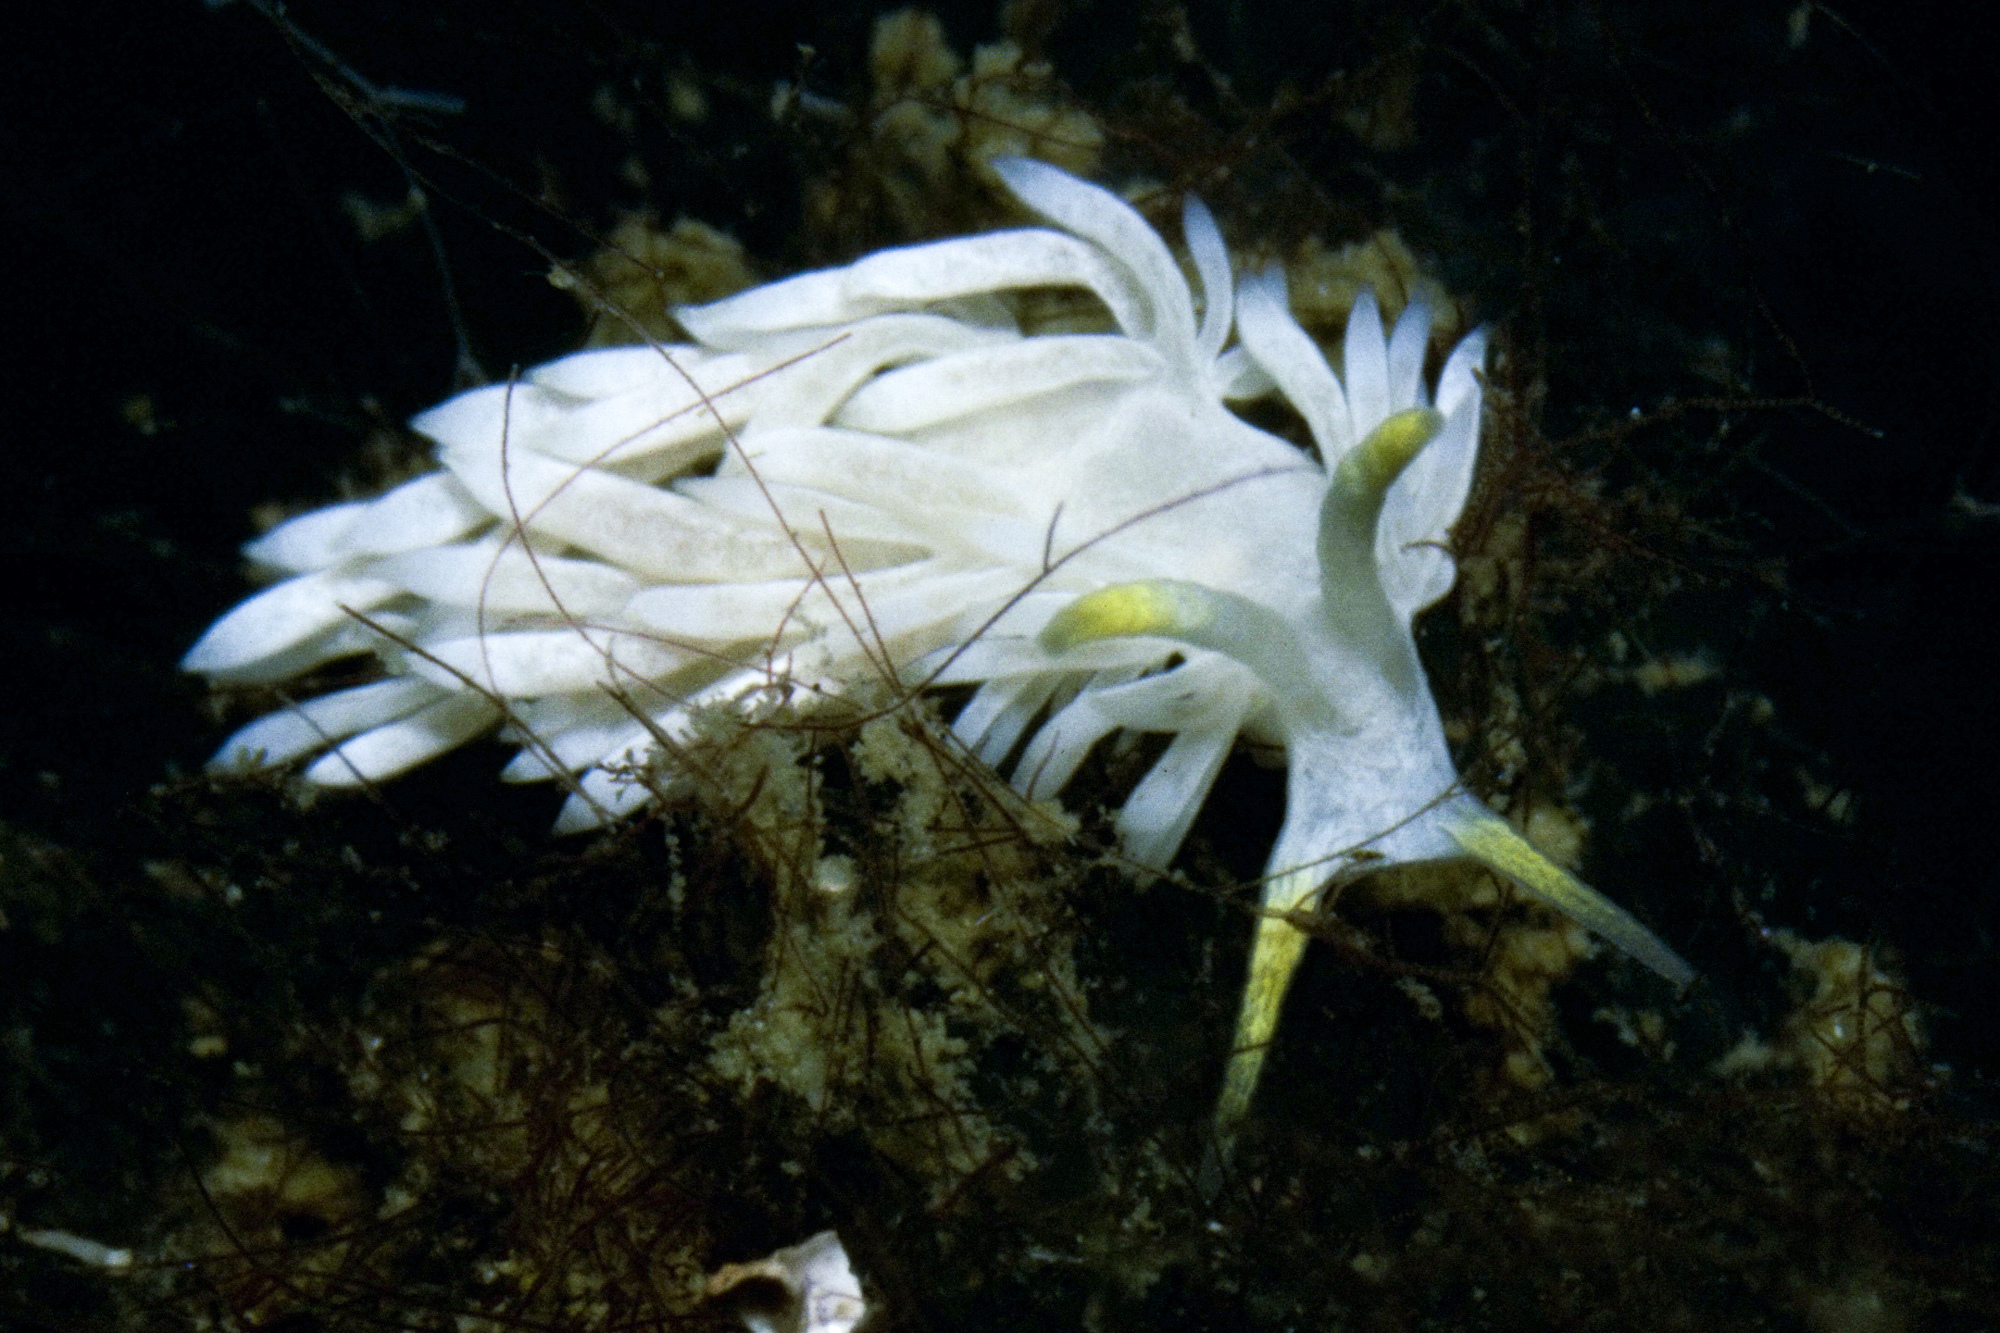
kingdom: Animalia
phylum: Mollusca
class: Gastropoda
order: Nudibranchia
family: Facelinidae
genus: Dicata
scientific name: Dicata odhneri
